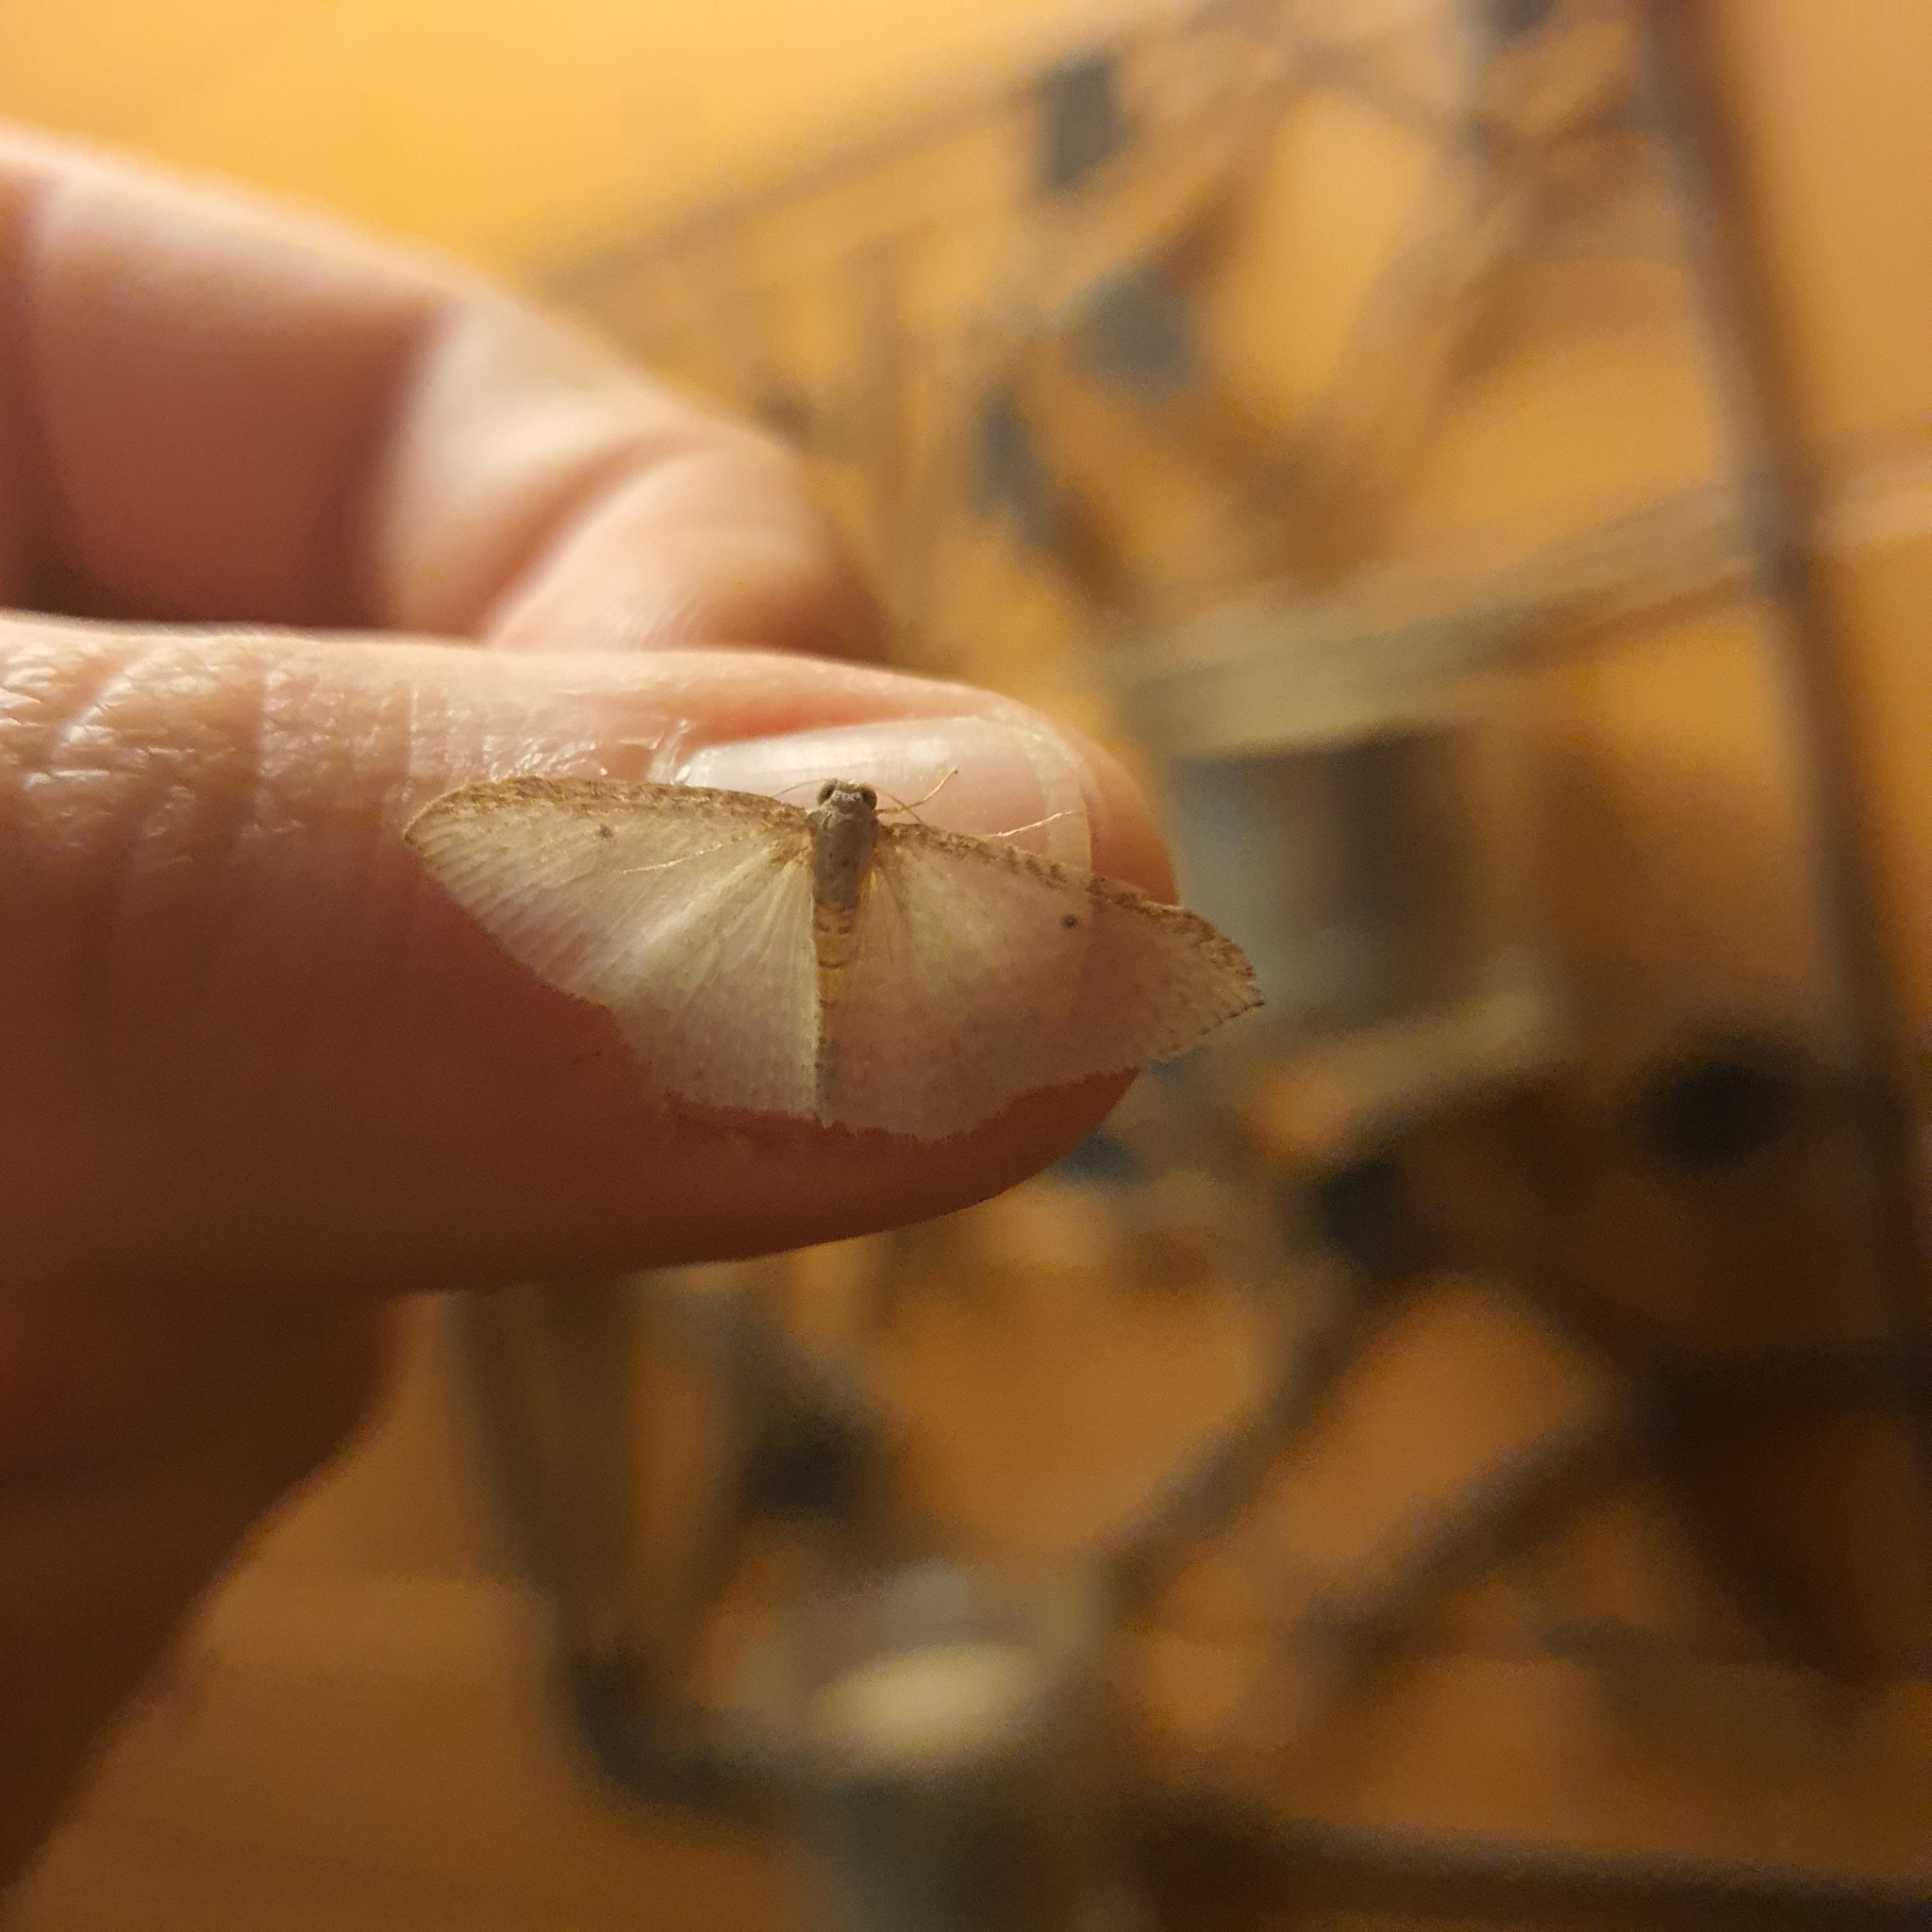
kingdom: Animalia
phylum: Arthropoda
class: Insecta
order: Lepidoptera
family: Geometridae
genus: Poecilasthena
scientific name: Poecilasthena pulchraria
